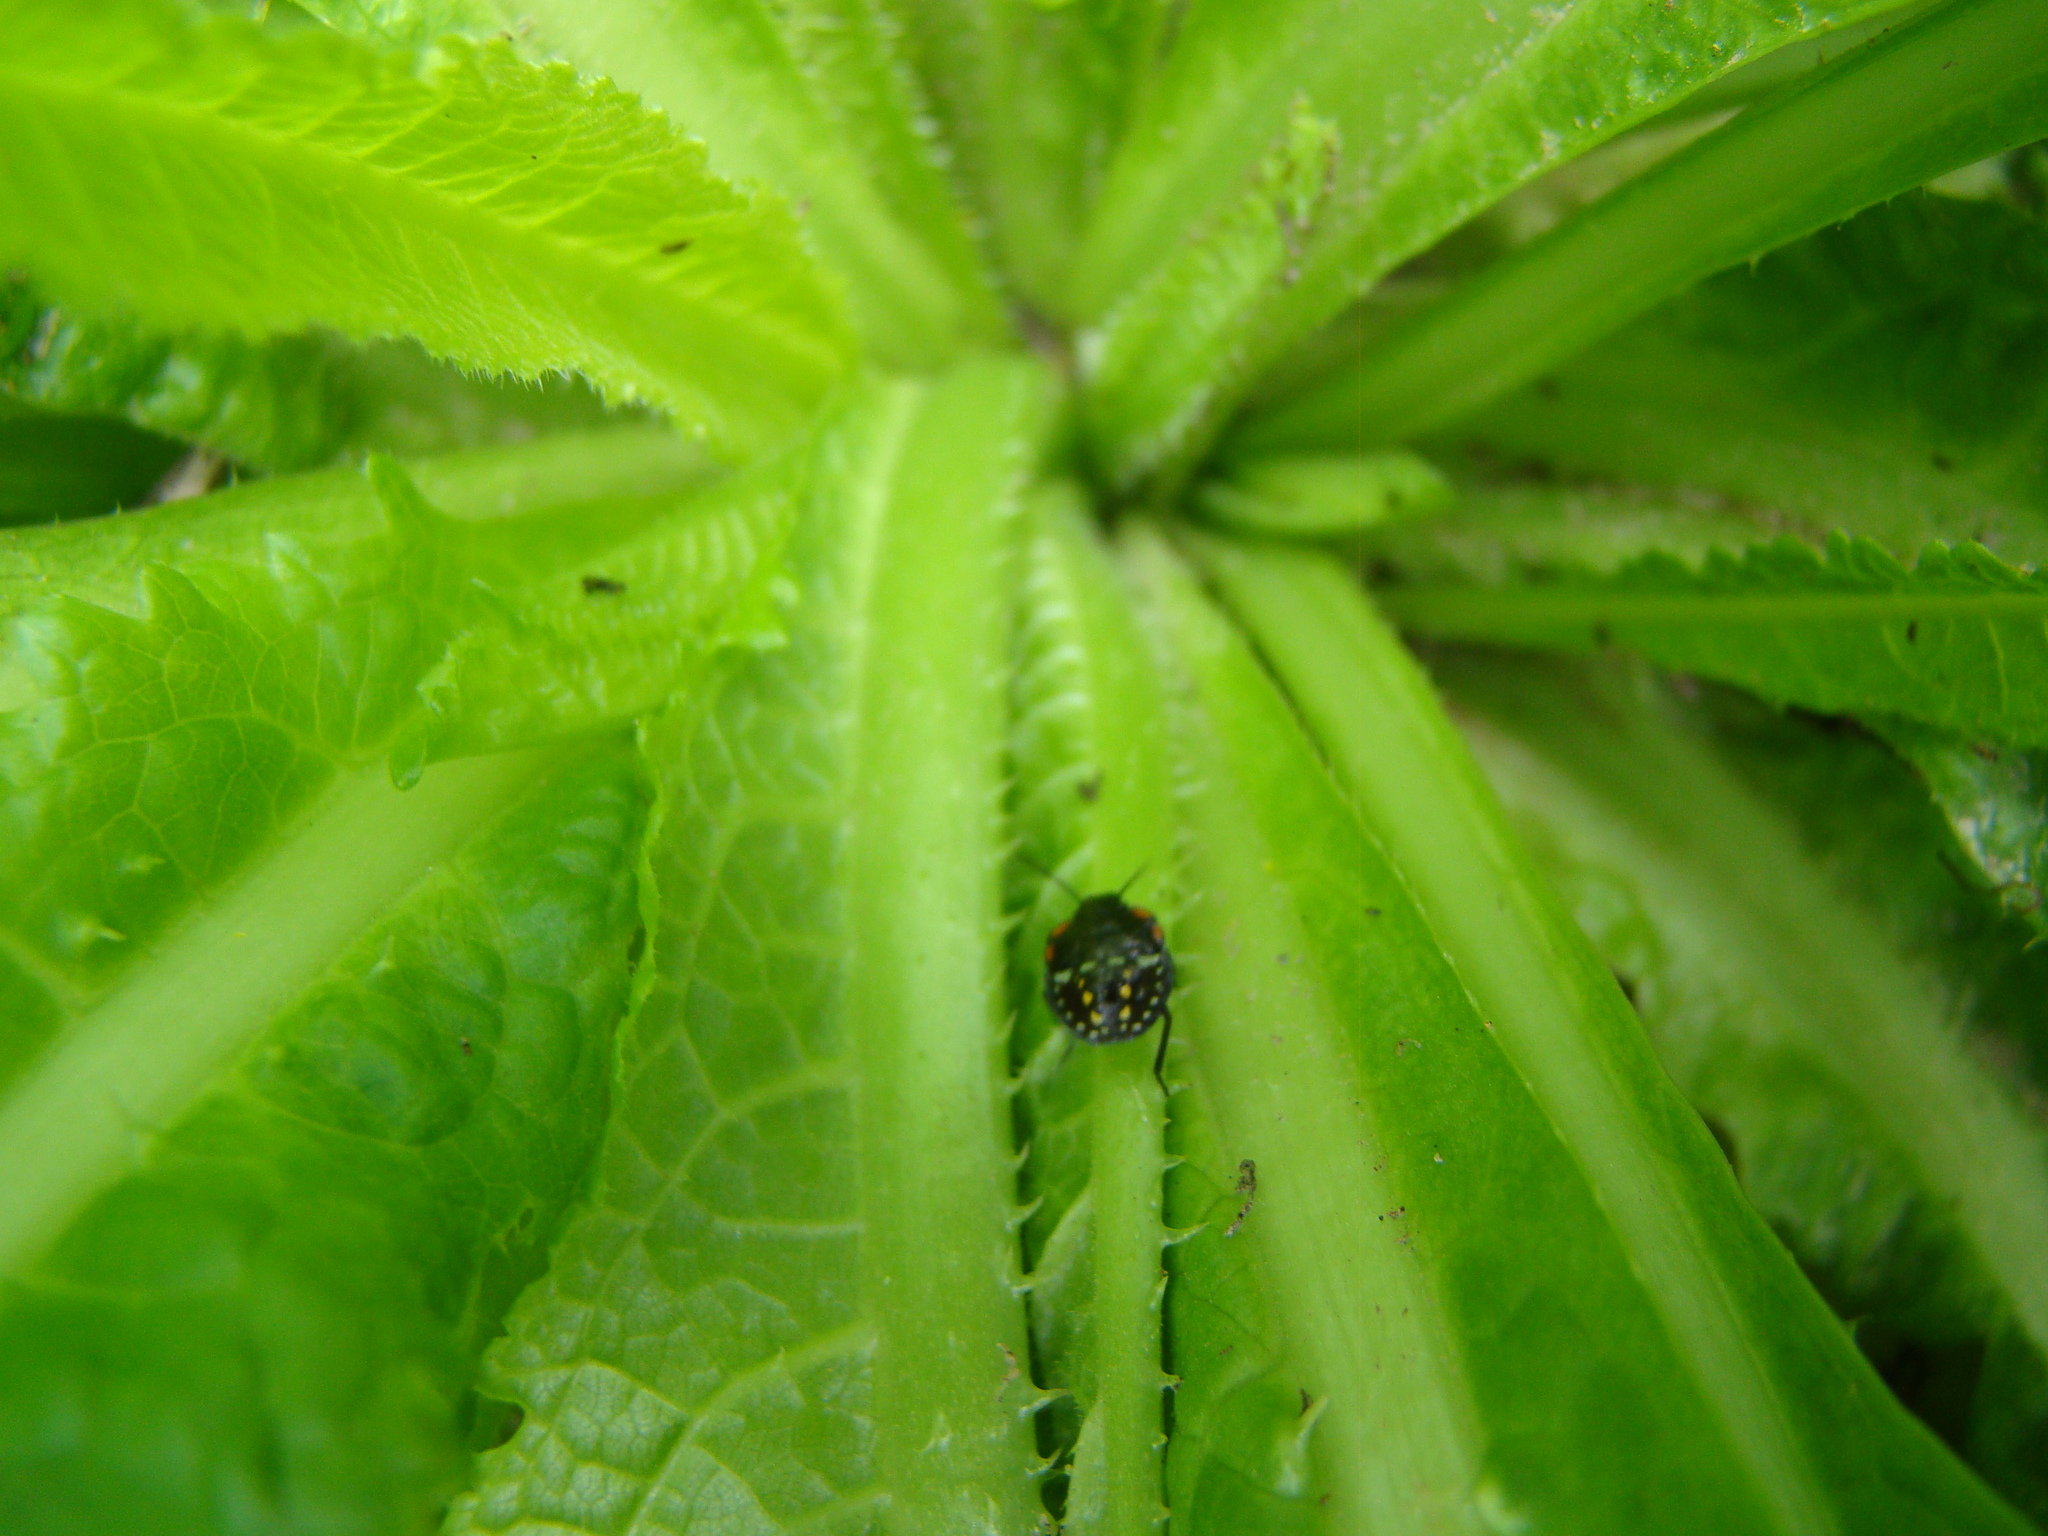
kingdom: Animalia
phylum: Arthropoda
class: Insecta
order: Hemiptera
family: Pentatomidae
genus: Nezara
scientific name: Nezara viridula
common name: Southern green stink bug
